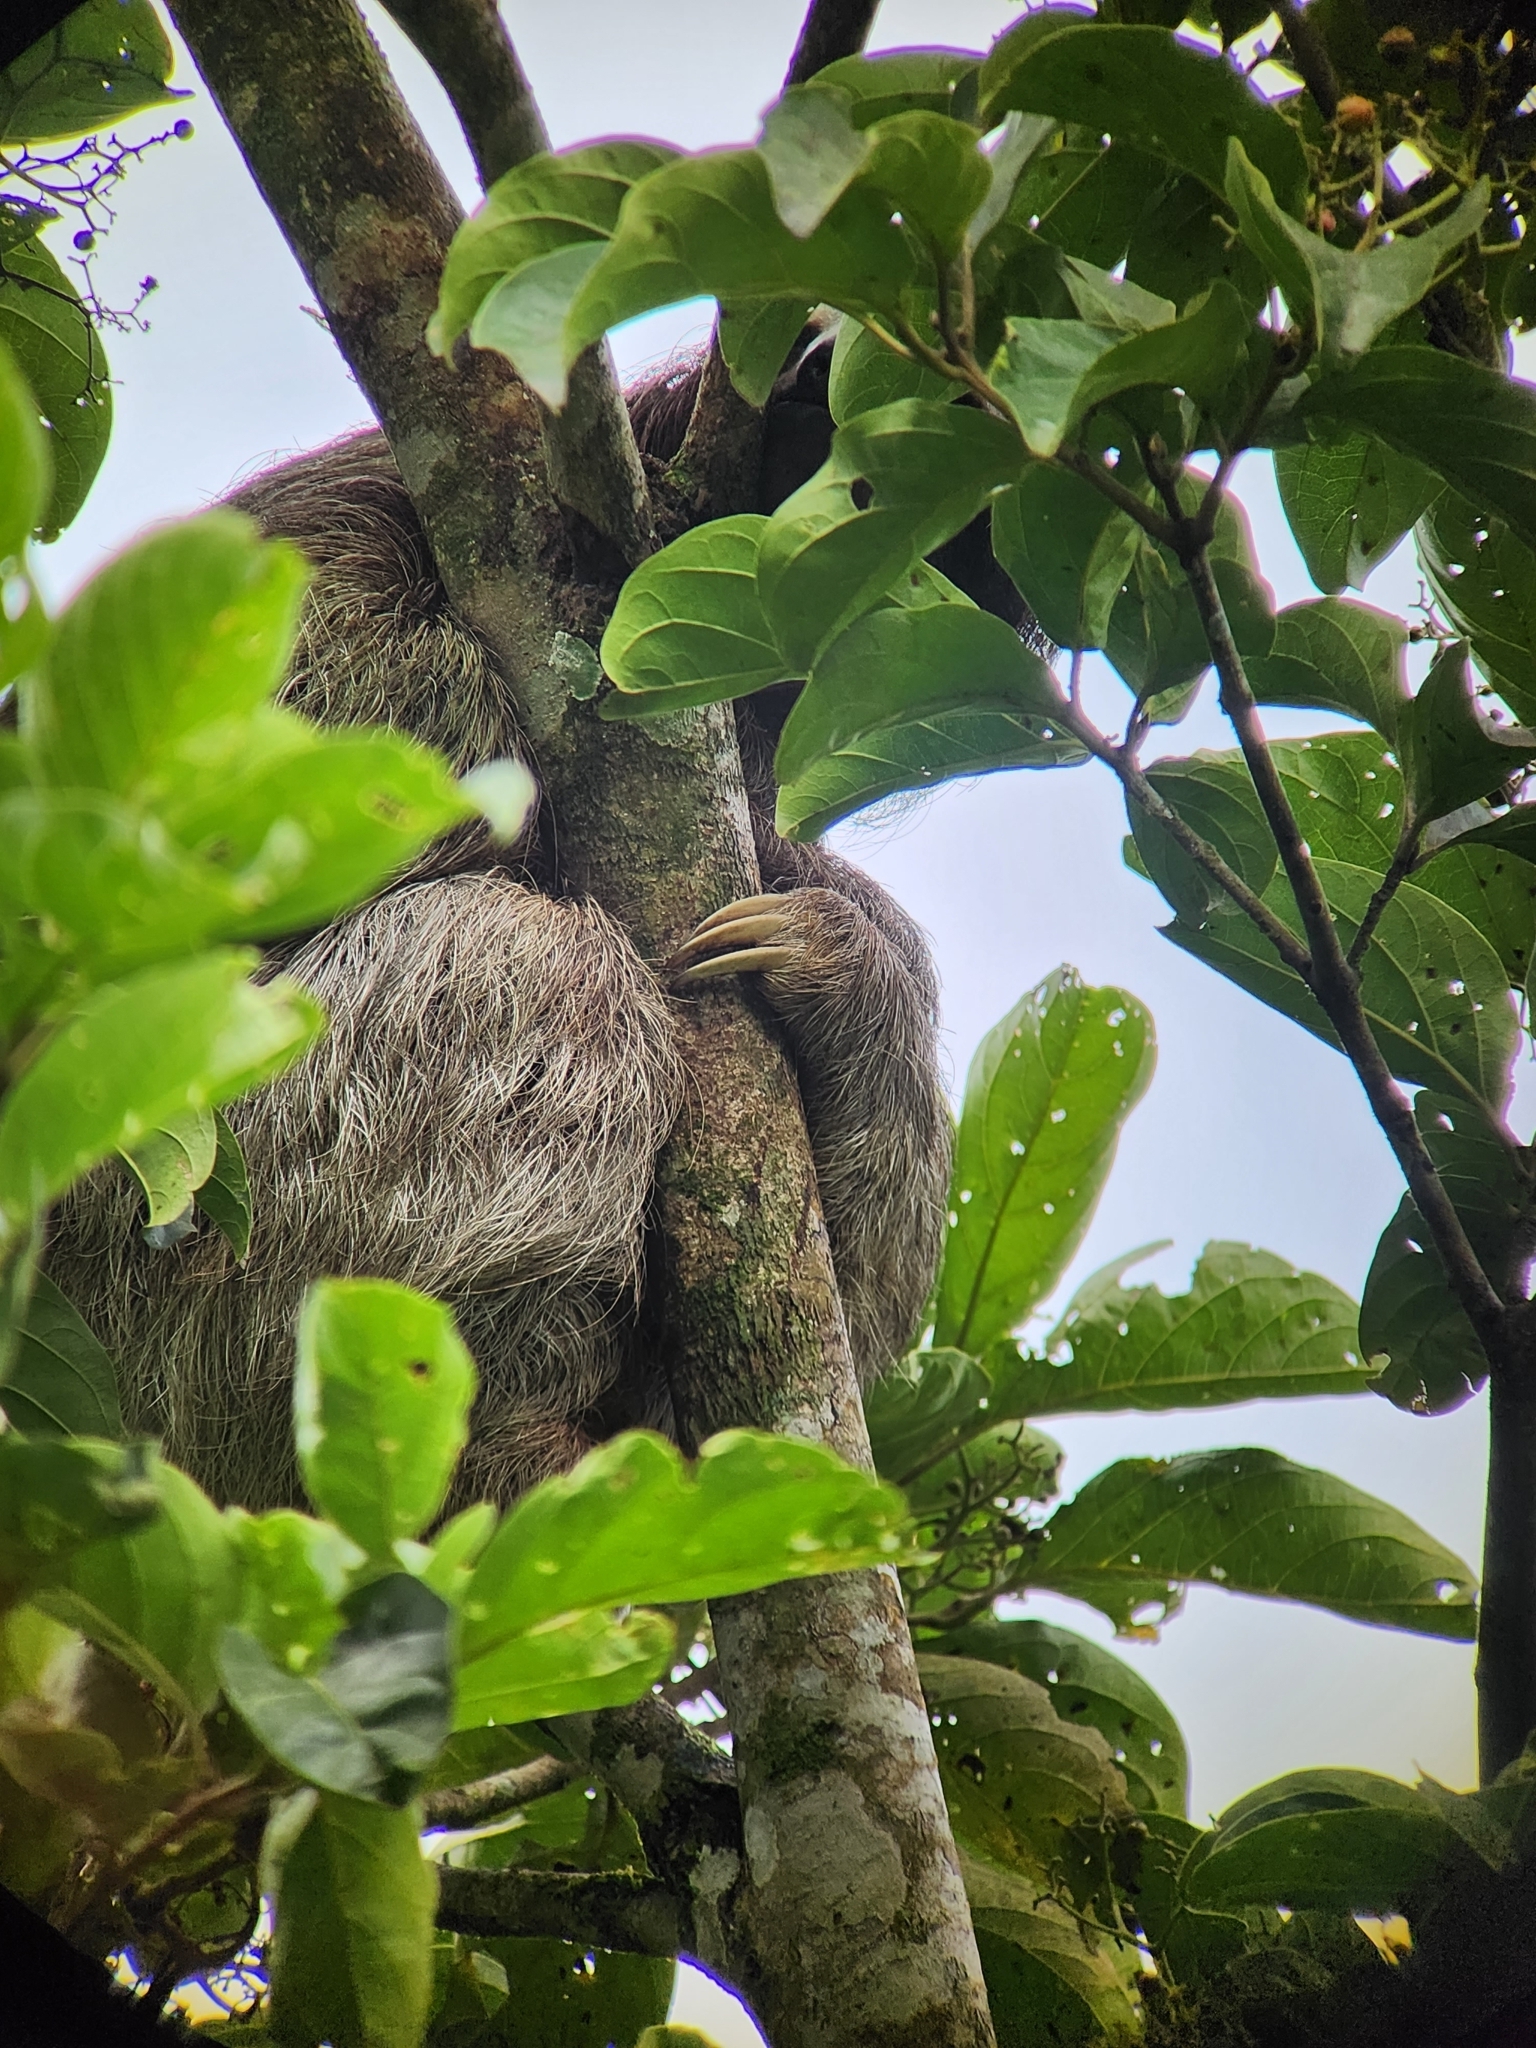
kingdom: Animalia
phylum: Chordata
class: Mammalia
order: Pilosa
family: Bradypodidae
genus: Bradypus
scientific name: Bradypus variegatus
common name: Brown-throated three-toed sloth
